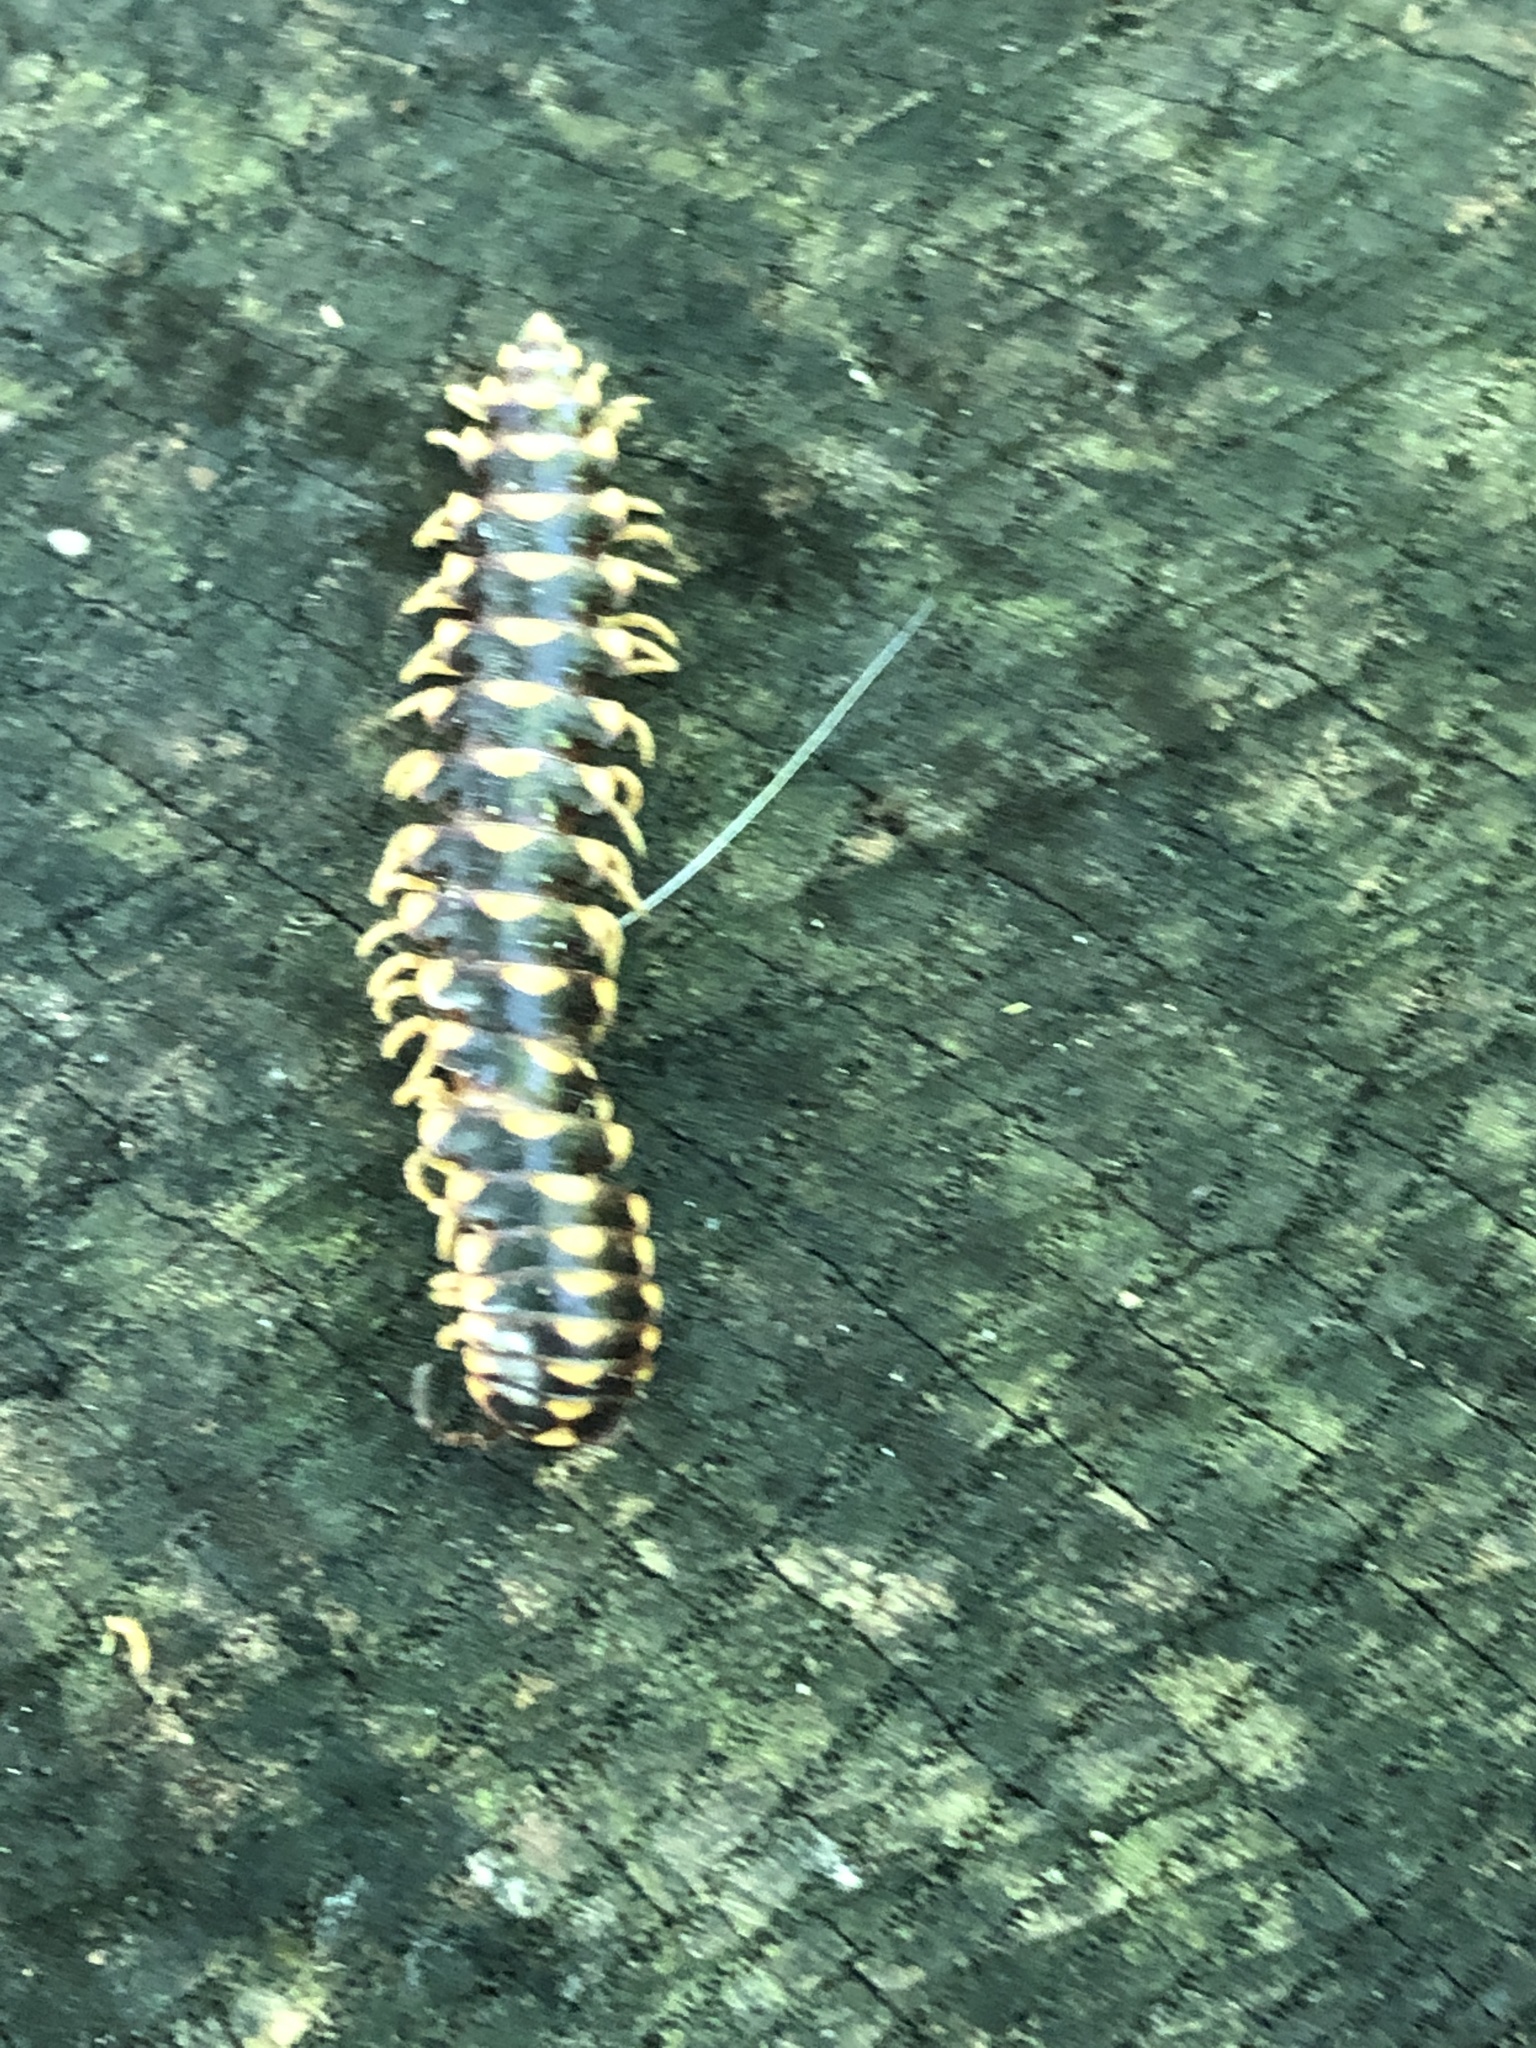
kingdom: Animalia
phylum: Arthropoda
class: Diplopoda
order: Polydesmida
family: Xystodesmidae
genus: Rudiloria
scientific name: Rudiloria trimaculata
